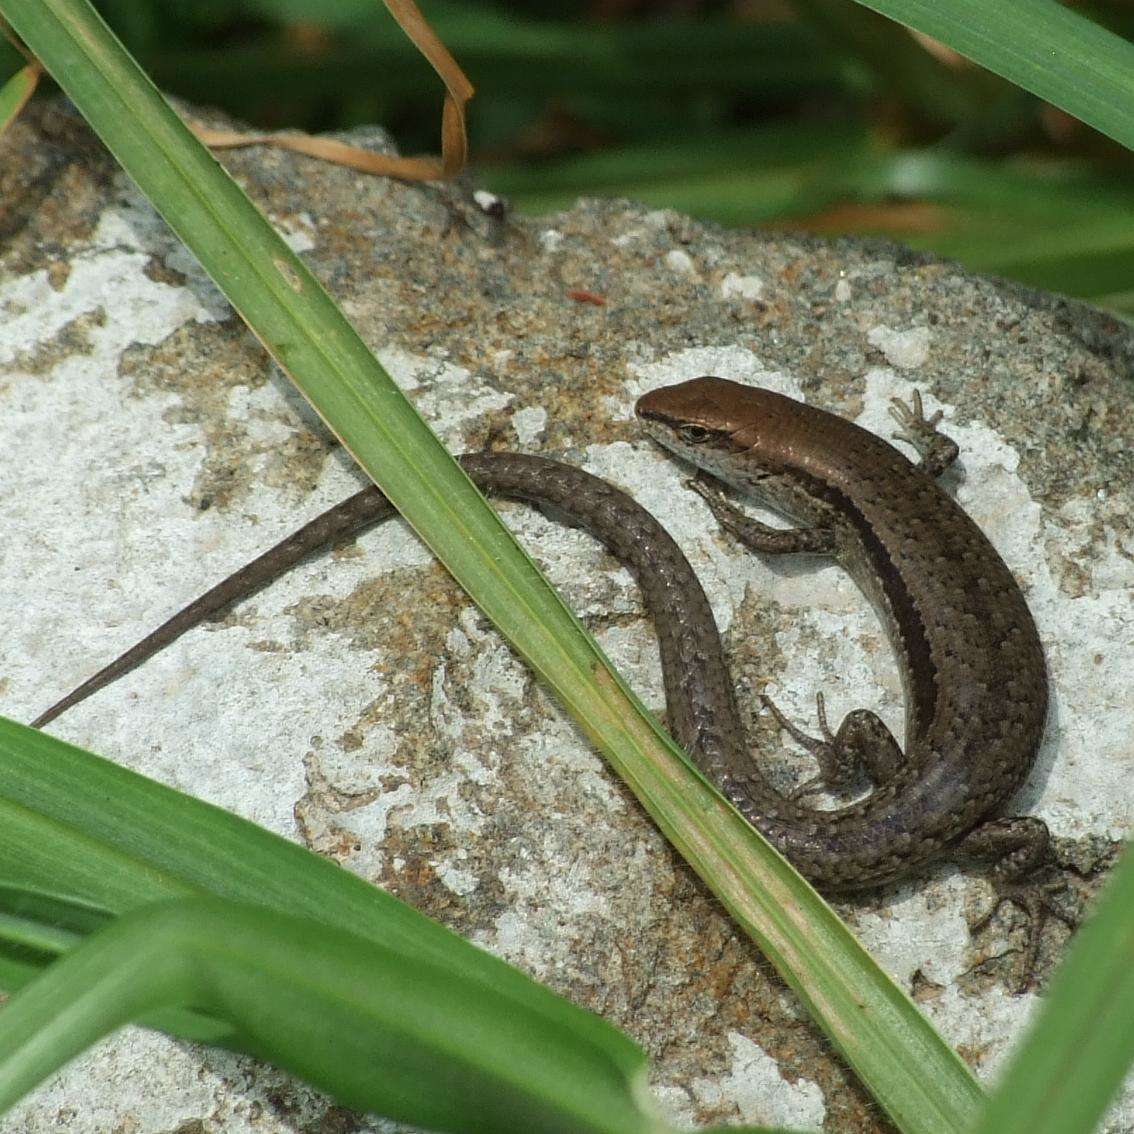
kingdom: Animalia
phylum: Chordata
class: Squamata
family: Scincidae
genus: Lampropholis
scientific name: Lampropholis guichenoti
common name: Garden skink
